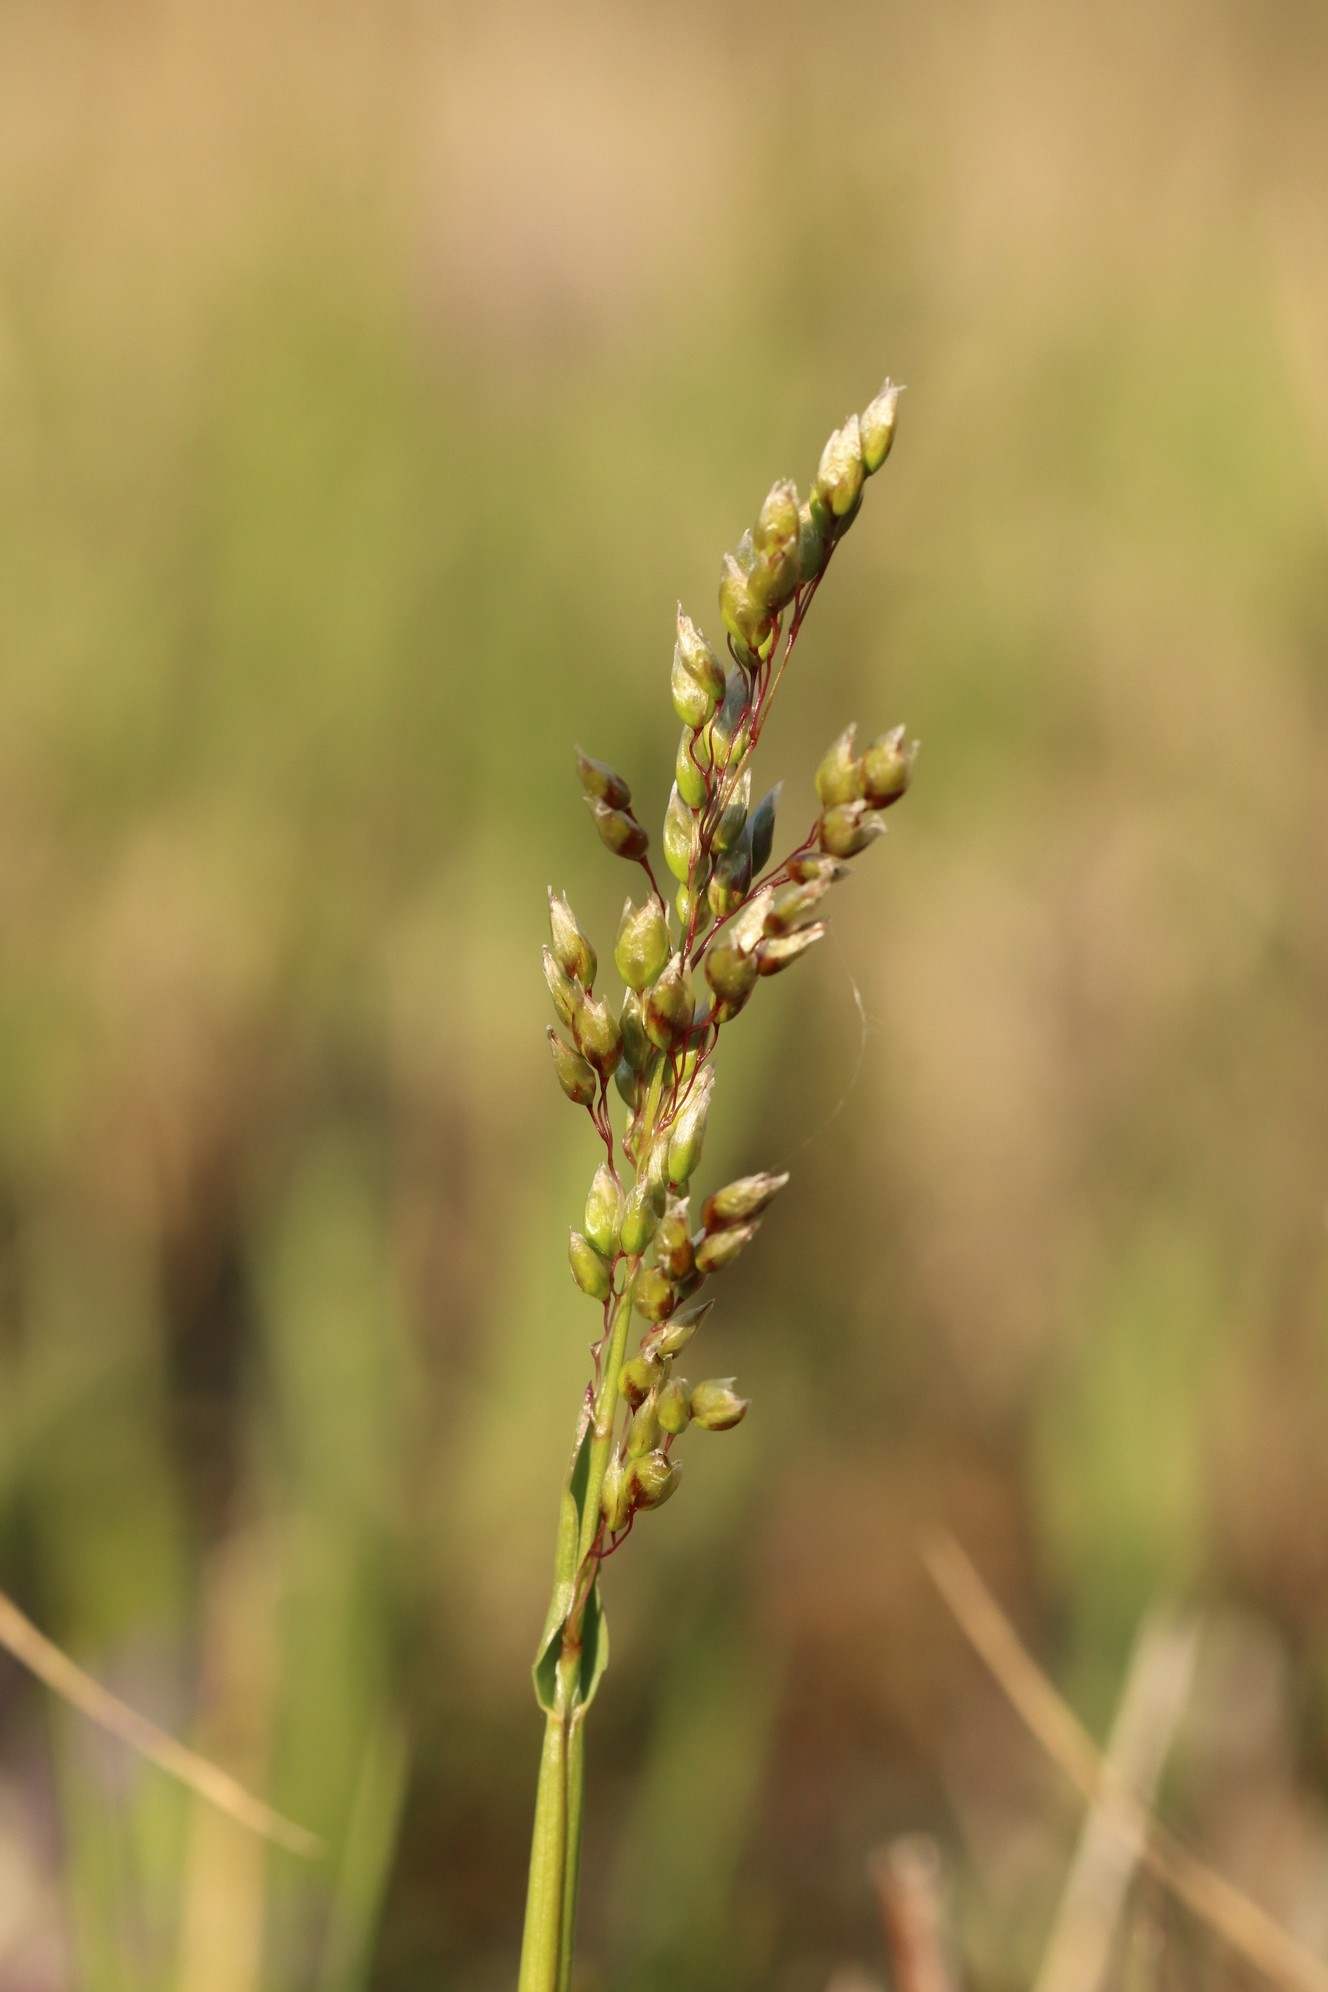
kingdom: Plantae
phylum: Tracheophyta
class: Liliopsida
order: Poales
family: Poaceae
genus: Anthoxanthum
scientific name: Anthoxanthum nitens
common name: Holy grass
